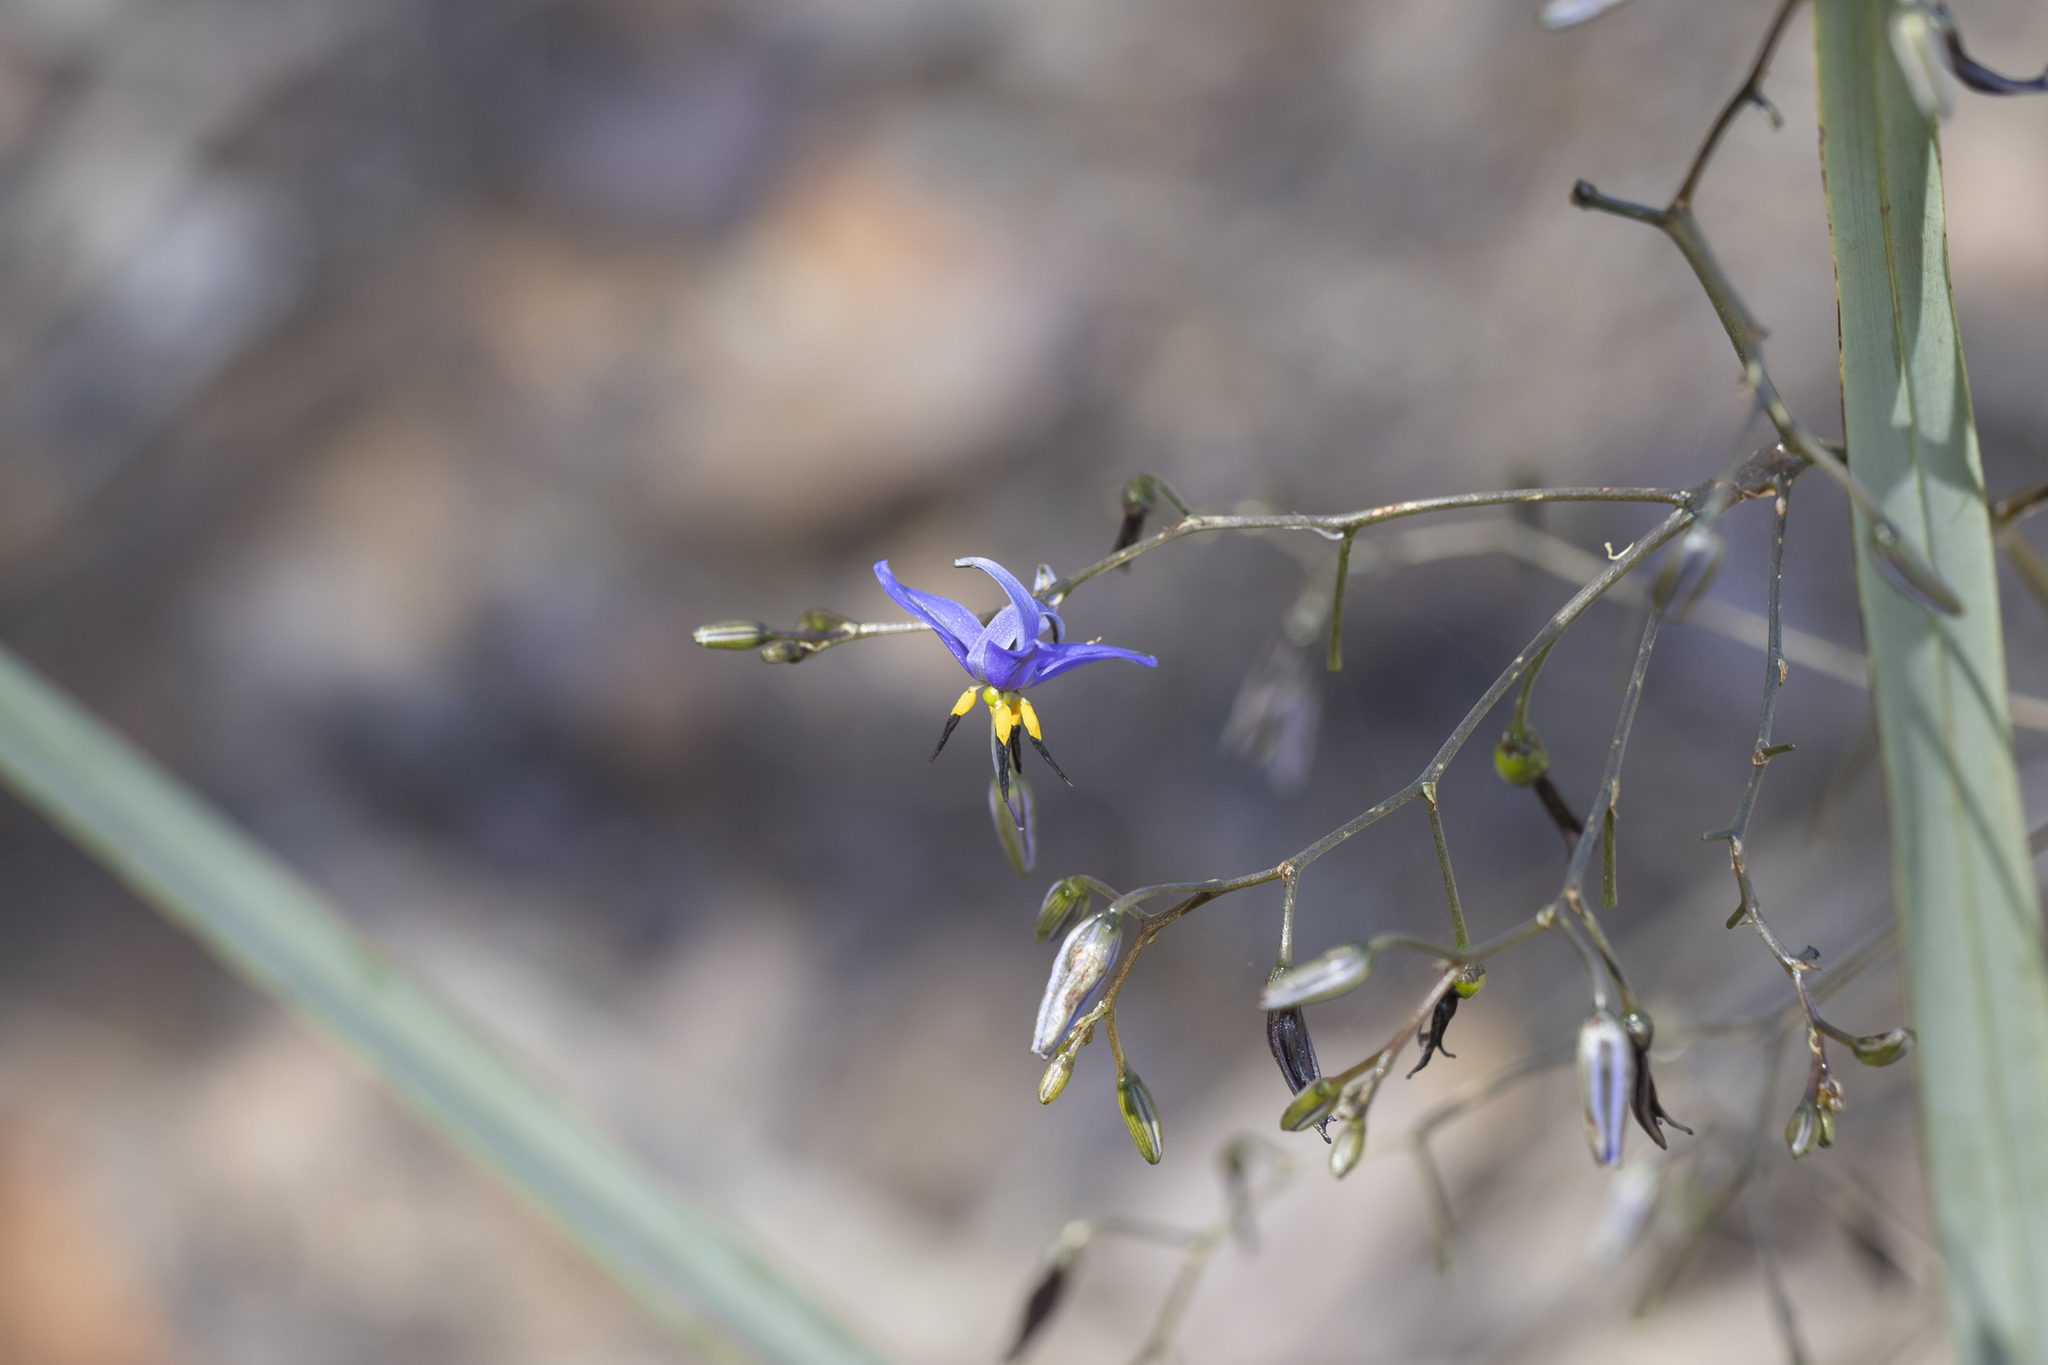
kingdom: Plantae
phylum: Tracheophyta
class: Liliopsida
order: Asparagales
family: Asphodelaceae
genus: Dianella
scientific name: Dianella revoluta
